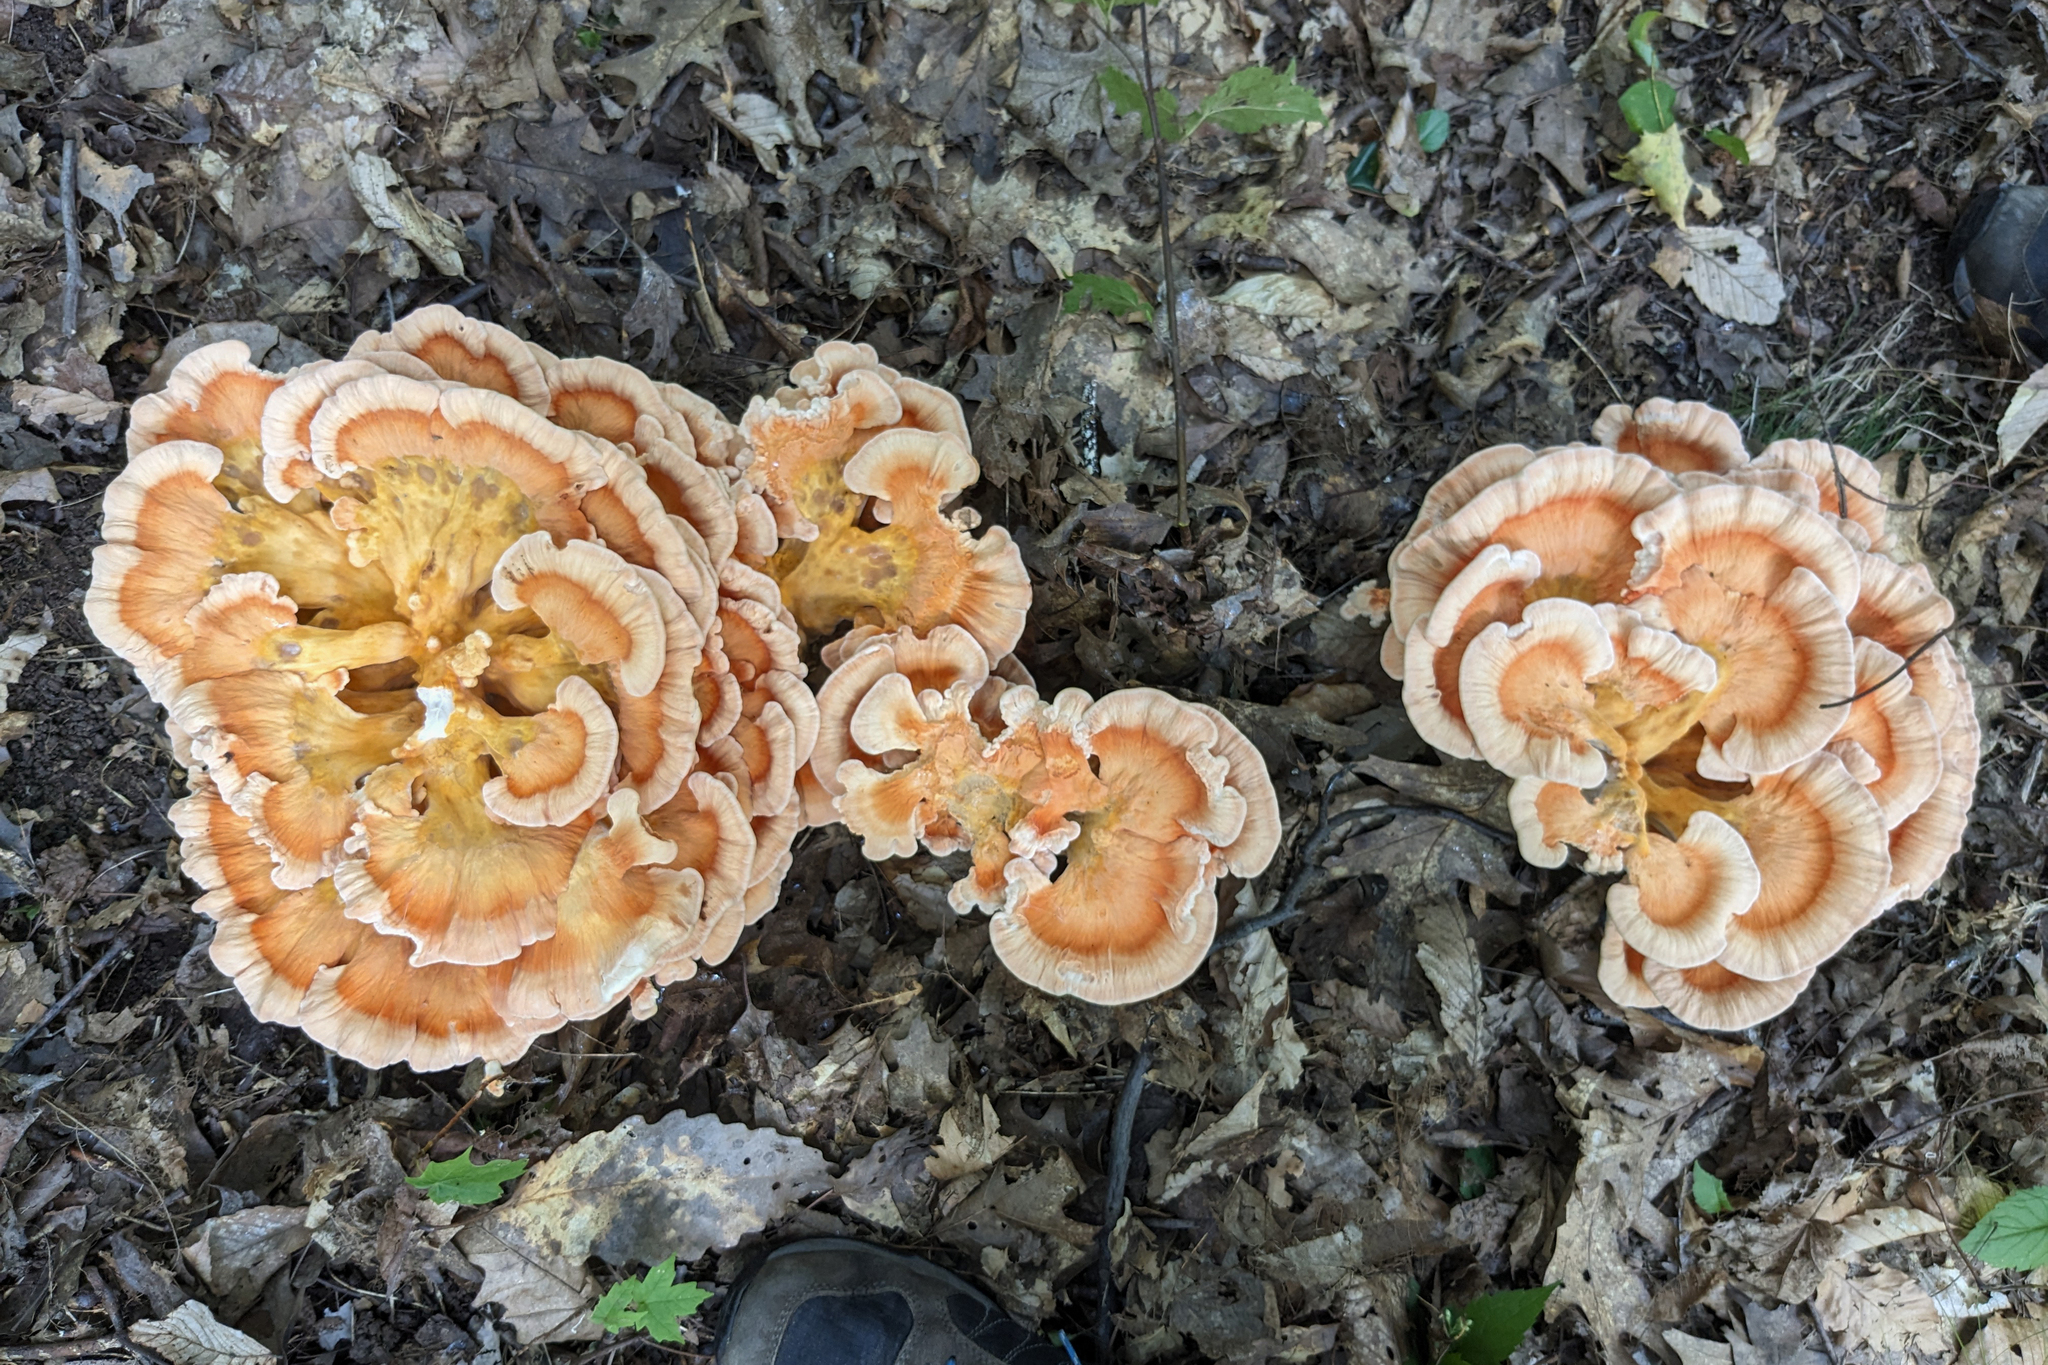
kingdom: Fungi
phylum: Basidiomycota
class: Agaricomycetes
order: Polyporales
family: Laetiporaceae
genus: Laetiporus
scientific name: Laetiporus sulphureus
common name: Chicken of the woods
